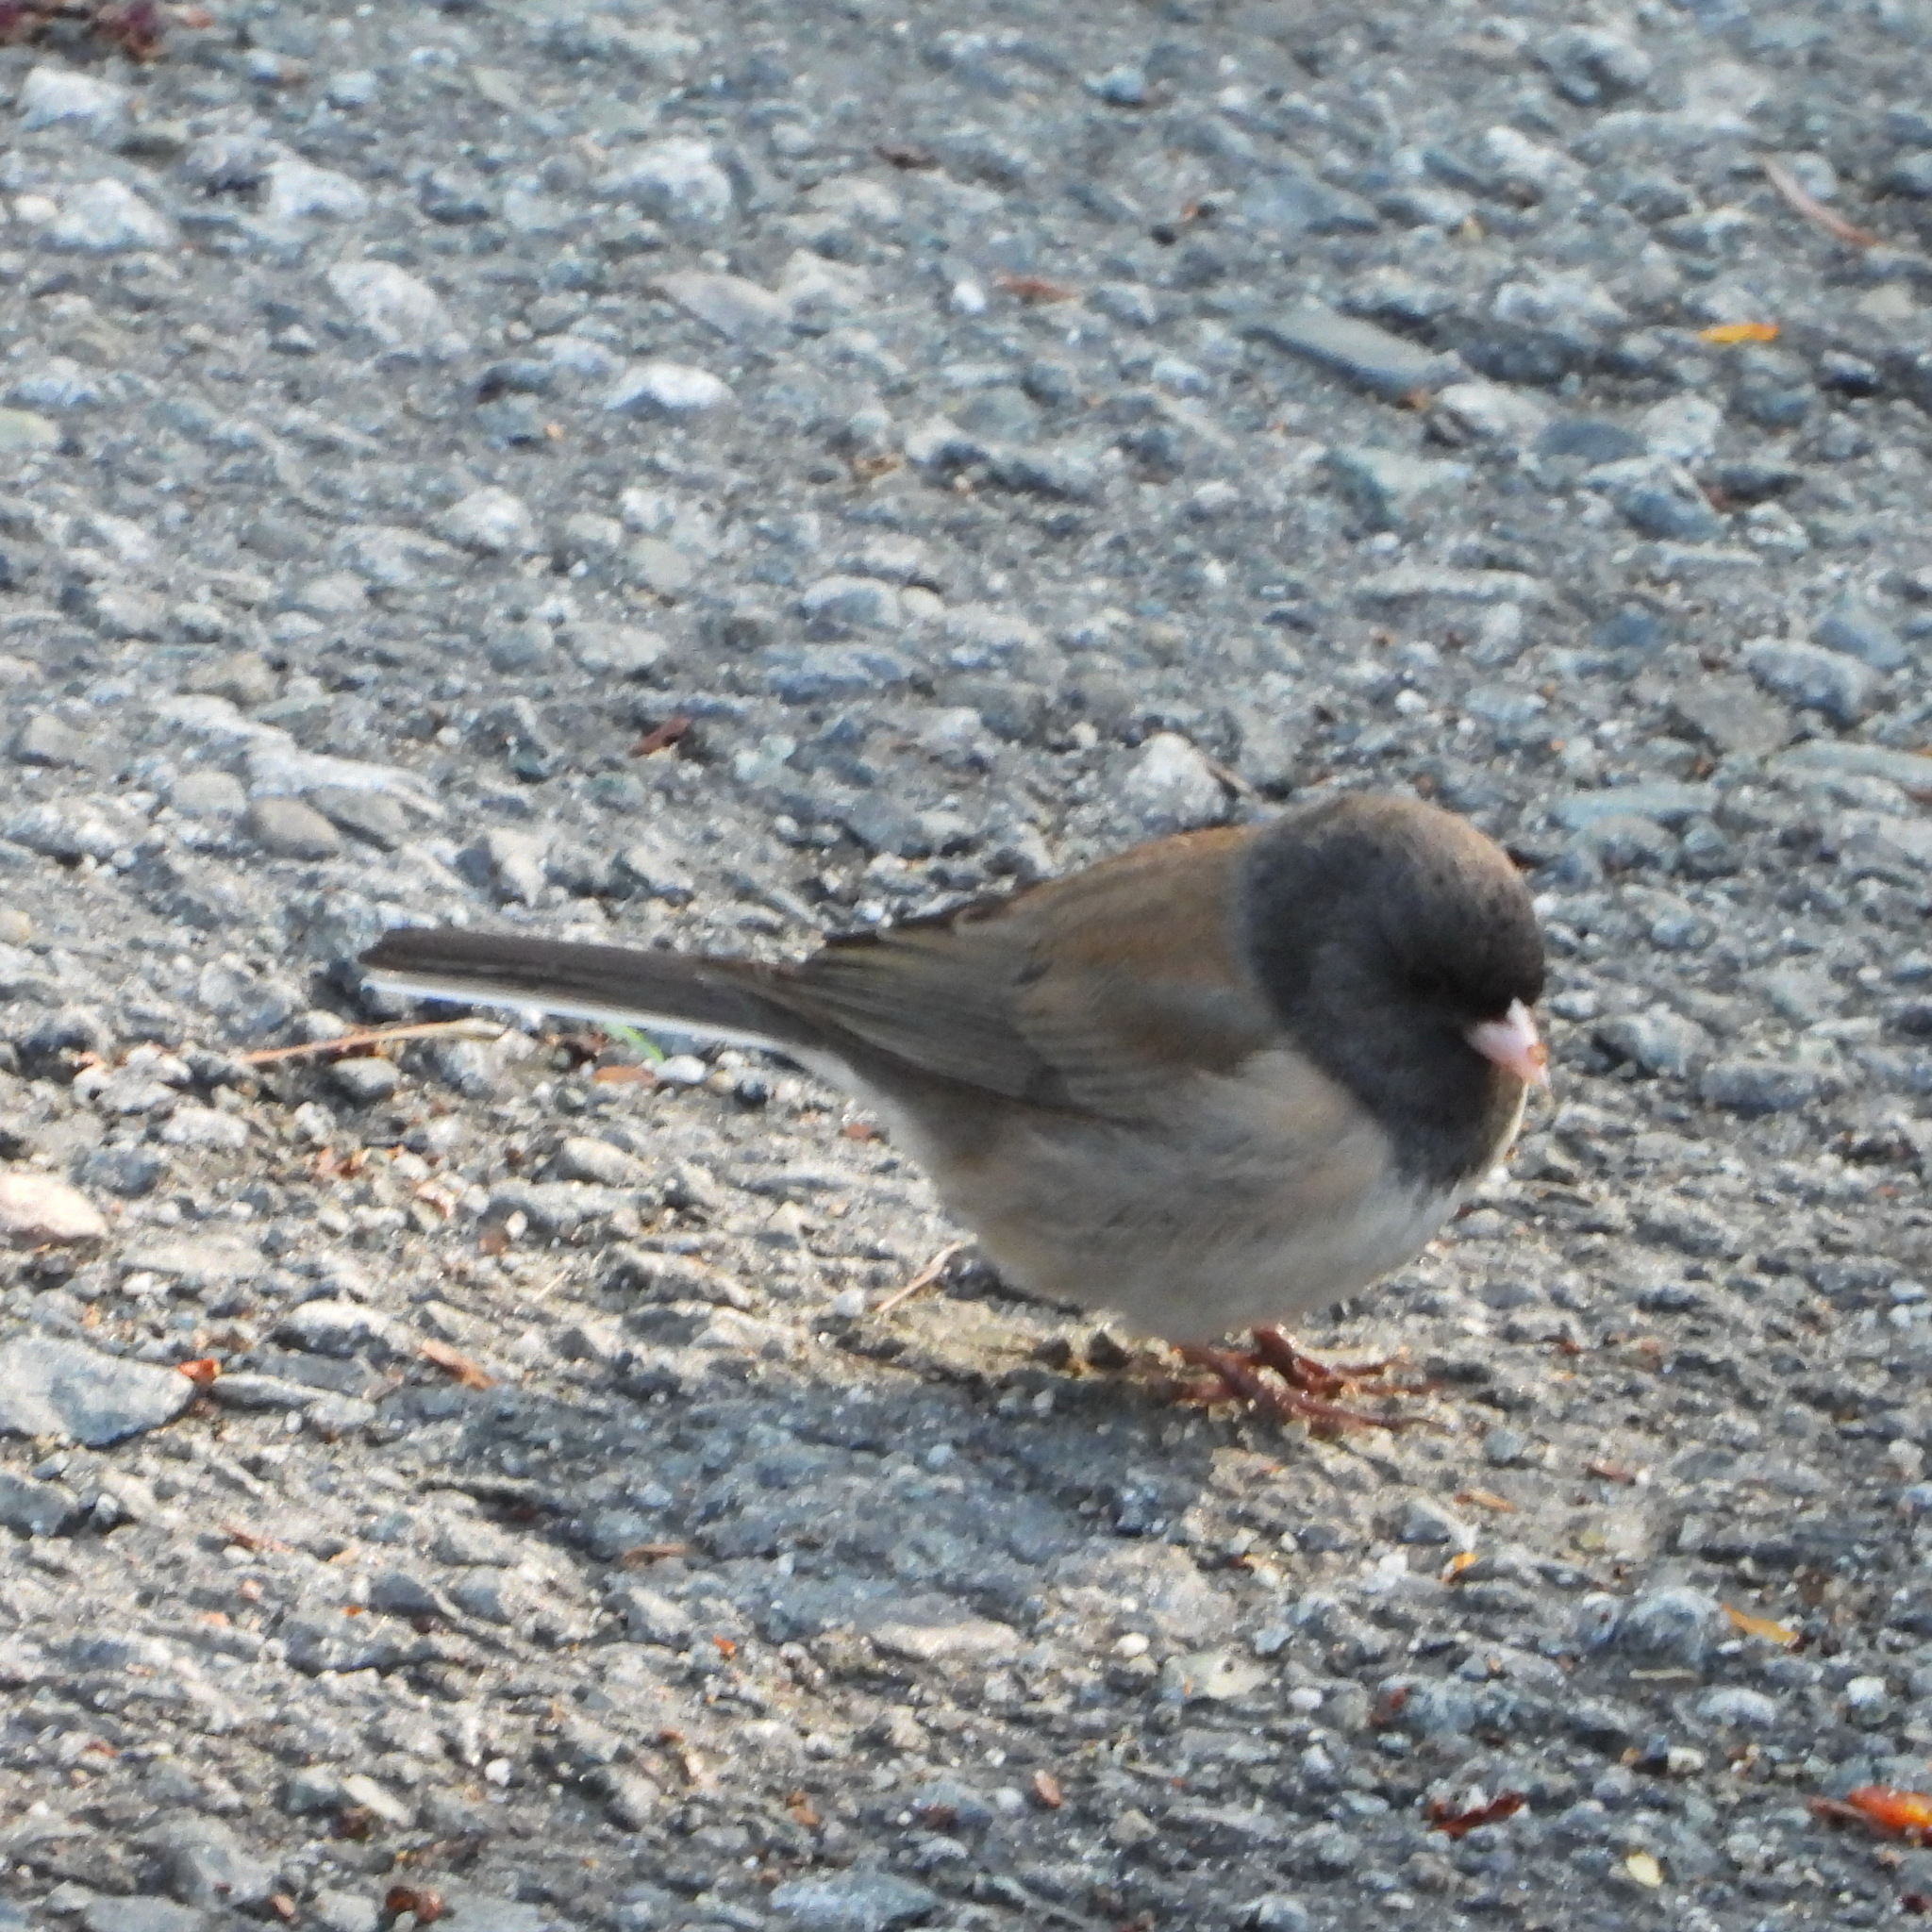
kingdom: Animalia
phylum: Chordata
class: Aves
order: Passeriformes
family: Passerellidae
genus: Junco
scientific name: Junco hyemalis
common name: Dark-eyed junco
